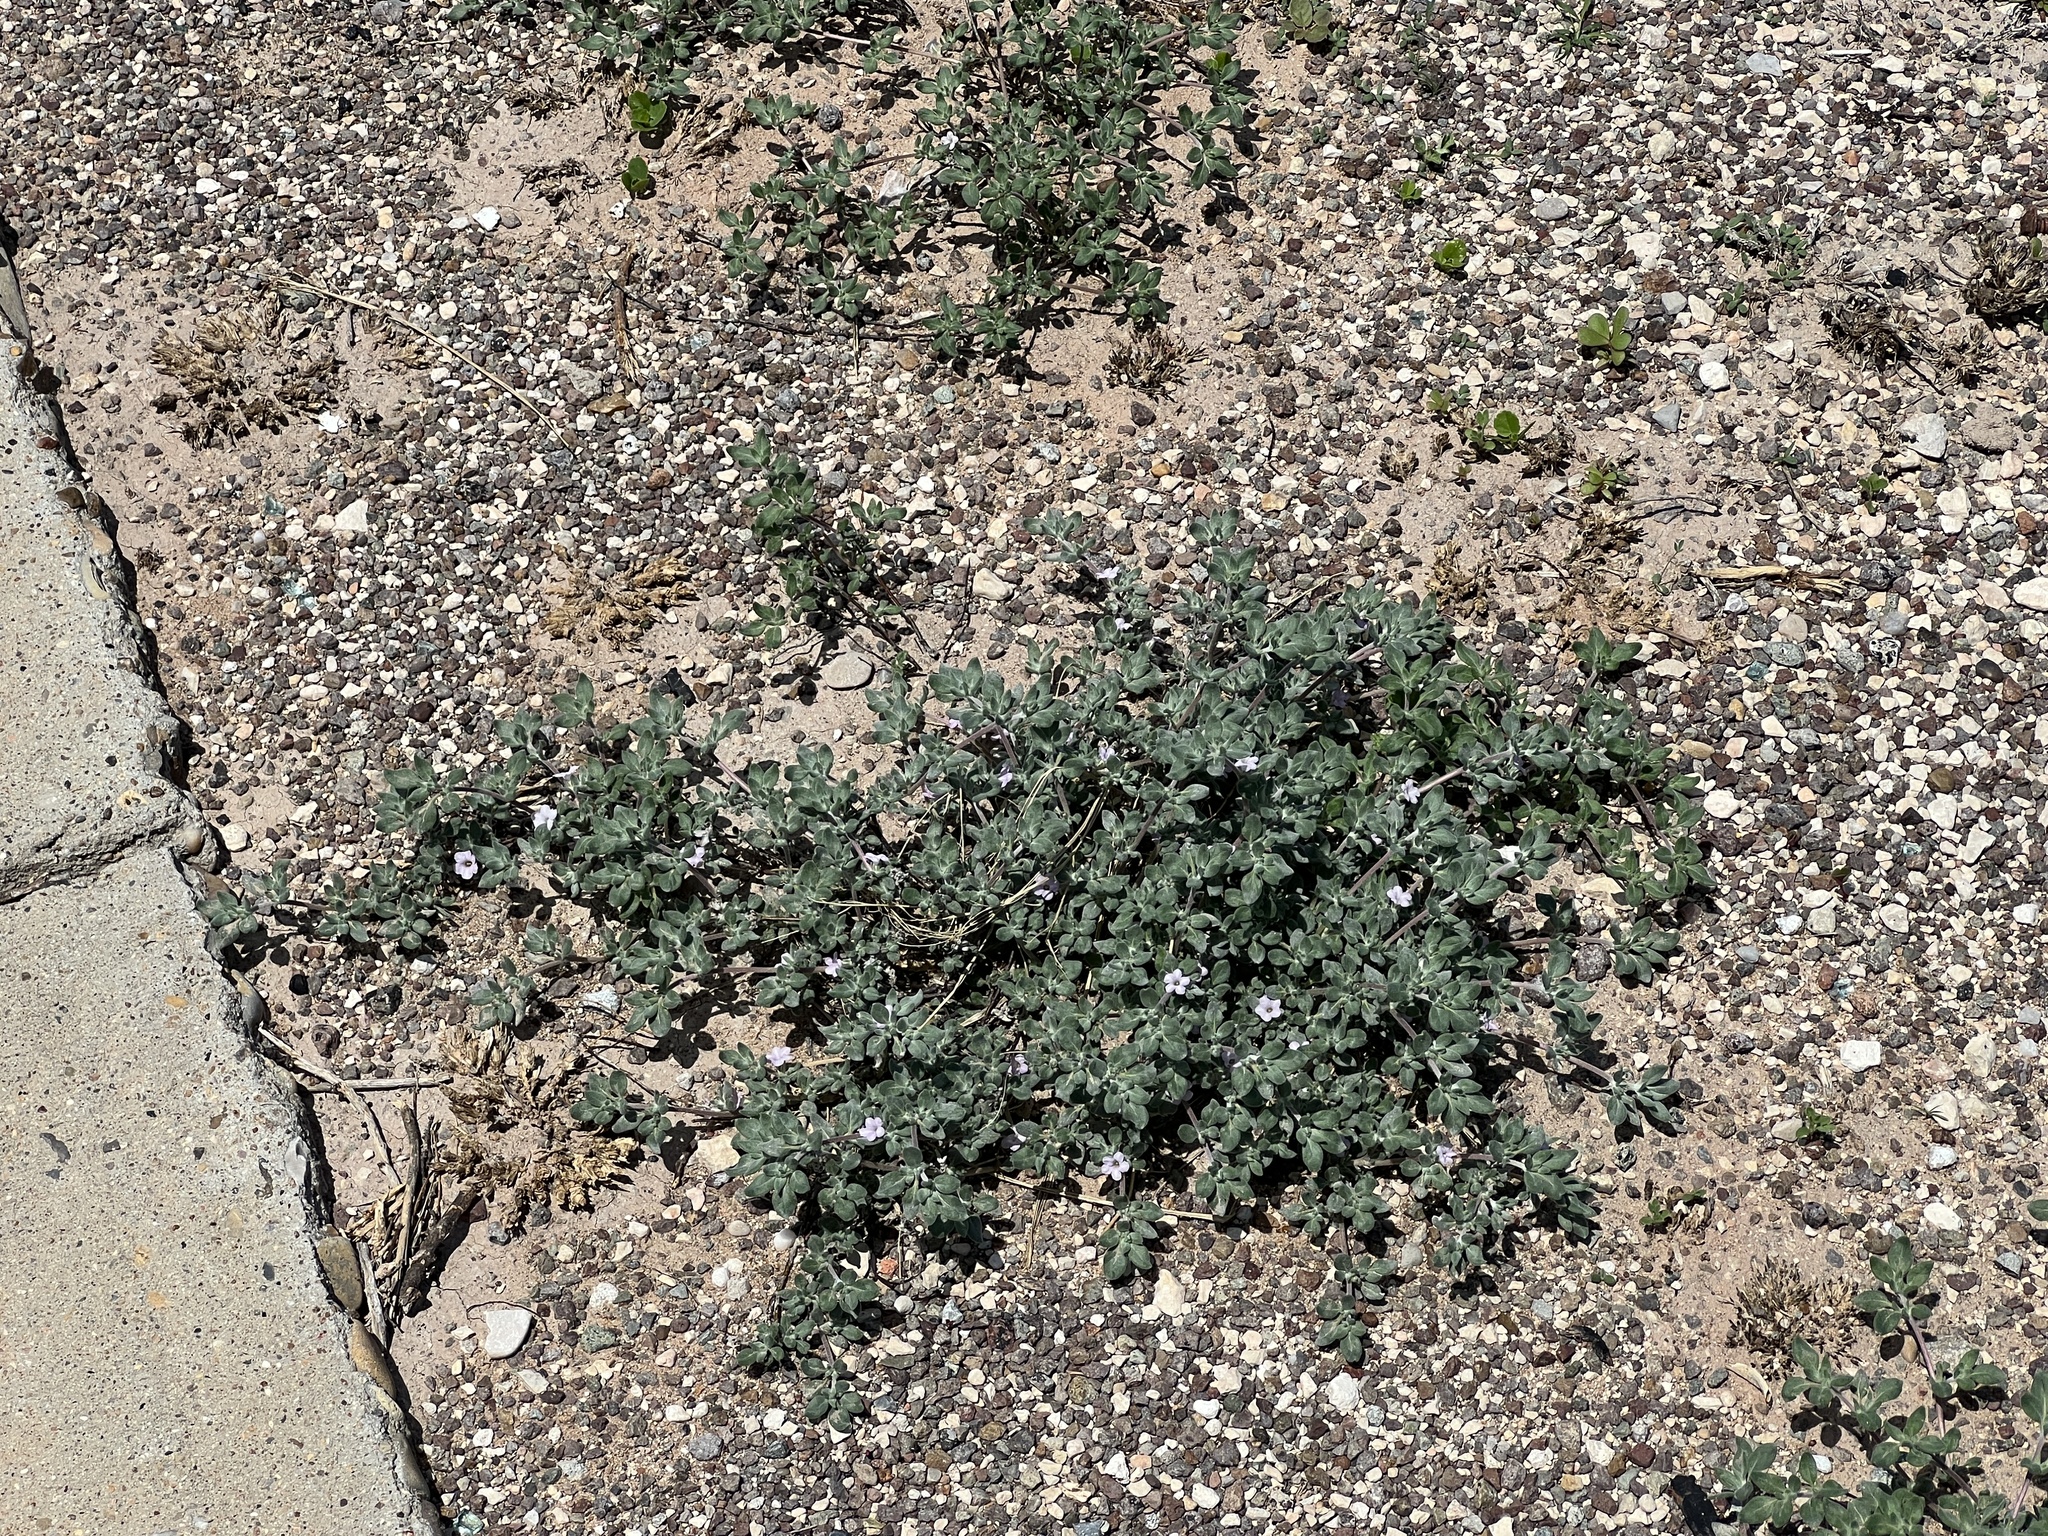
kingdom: Plantae
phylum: Tracheophyta
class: Magnoliopsida
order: Boraginales
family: Ehretiaceae
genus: Tiquilia
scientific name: Tiquilia canescens
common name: Hairy tiquilia
